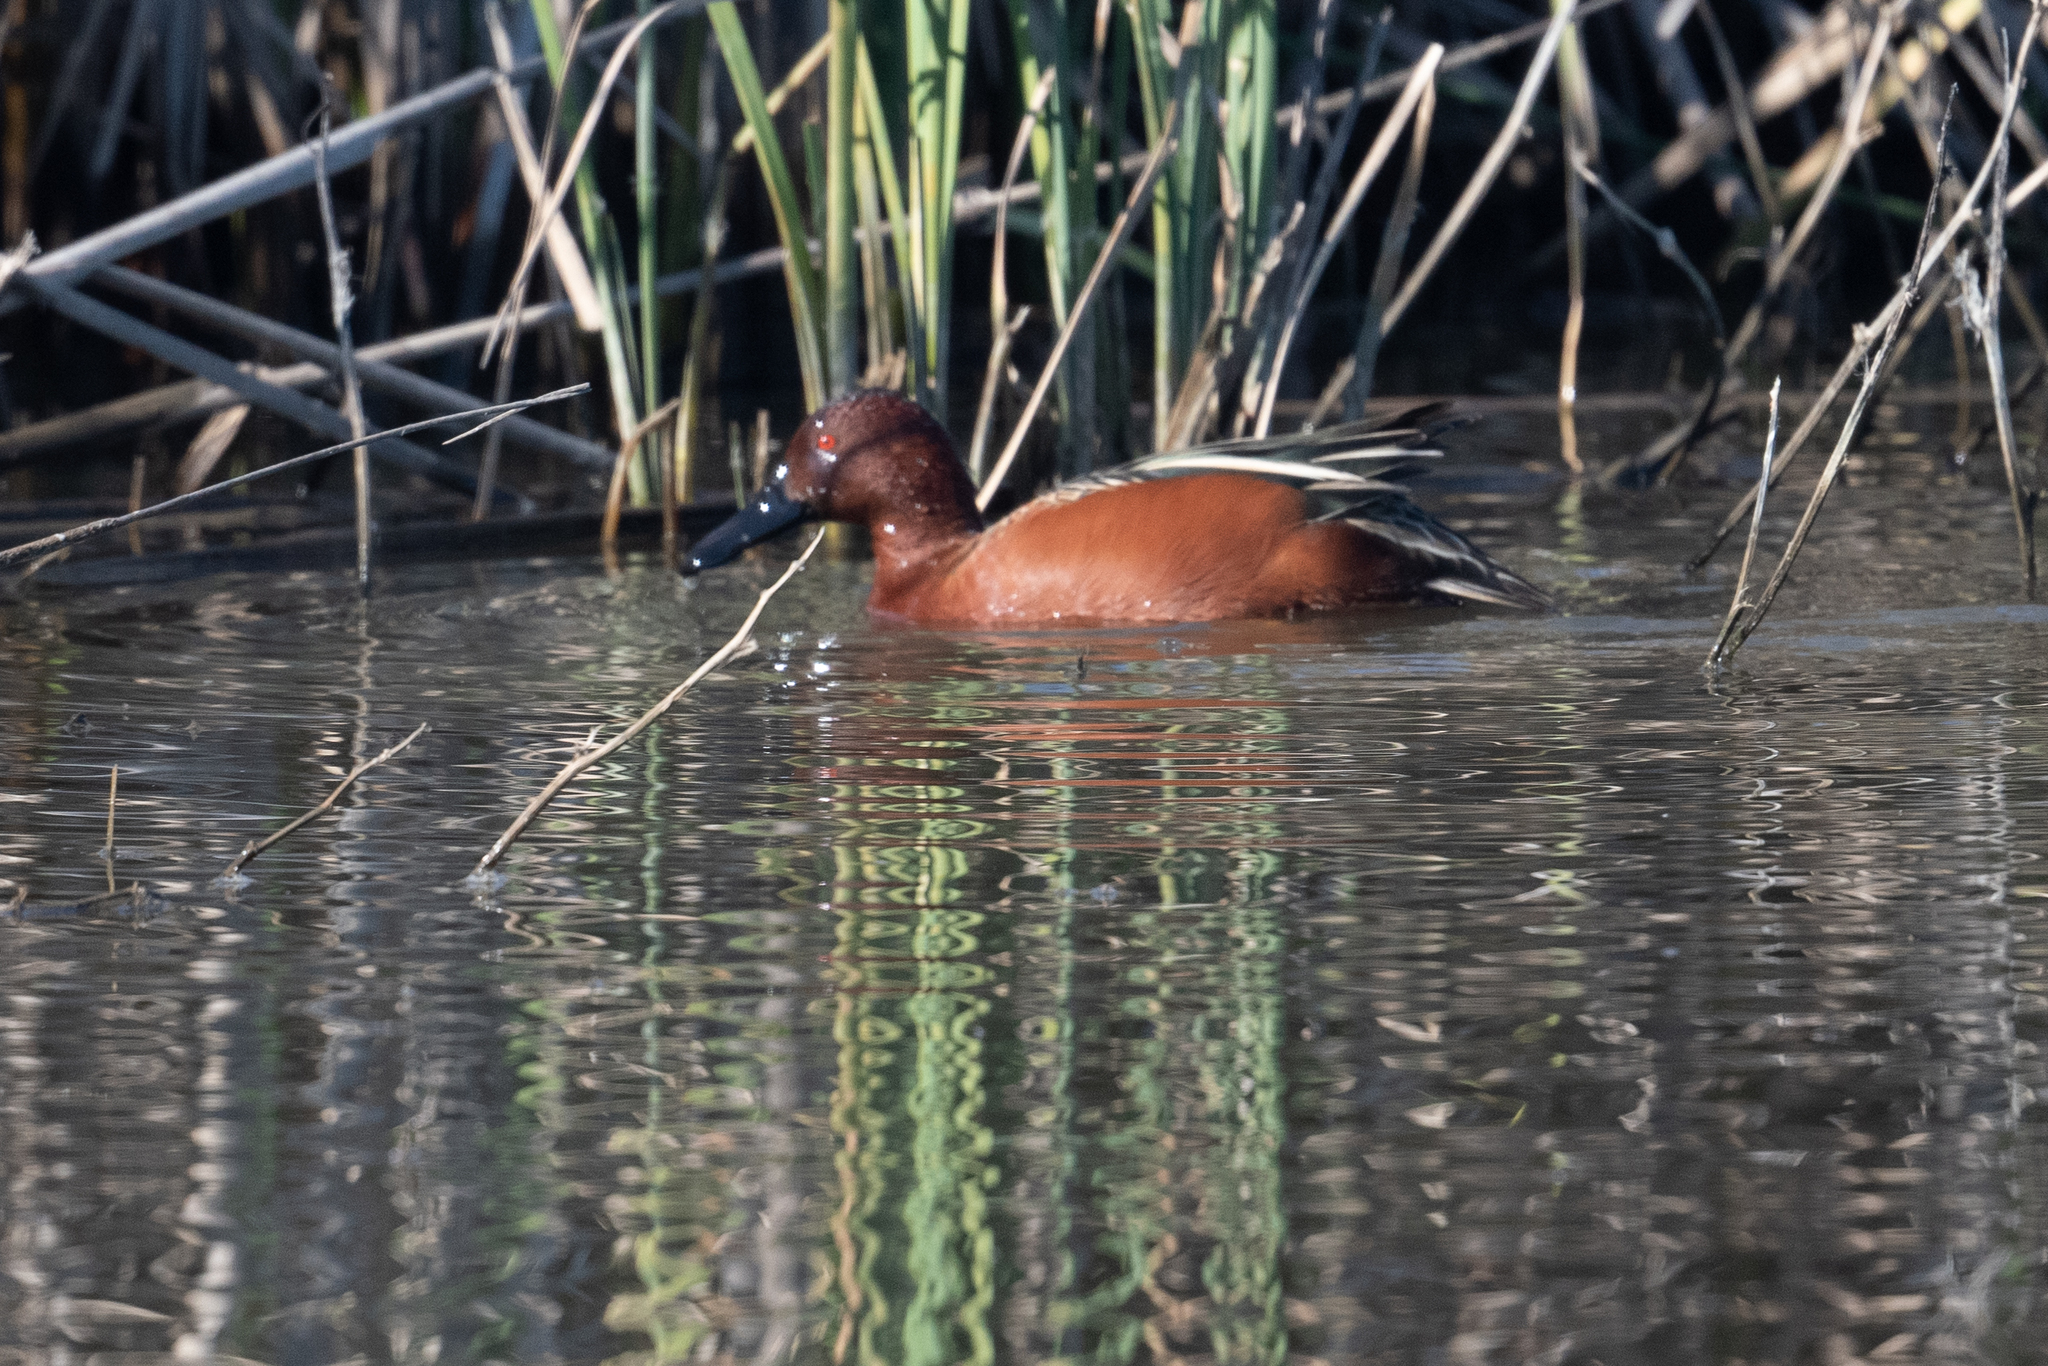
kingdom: Animalia
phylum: Chordata
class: Aves
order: Anseriformes
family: Anatidae
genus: Spatula
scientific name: Spatula cyanoptera
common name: Cinnamon teal
